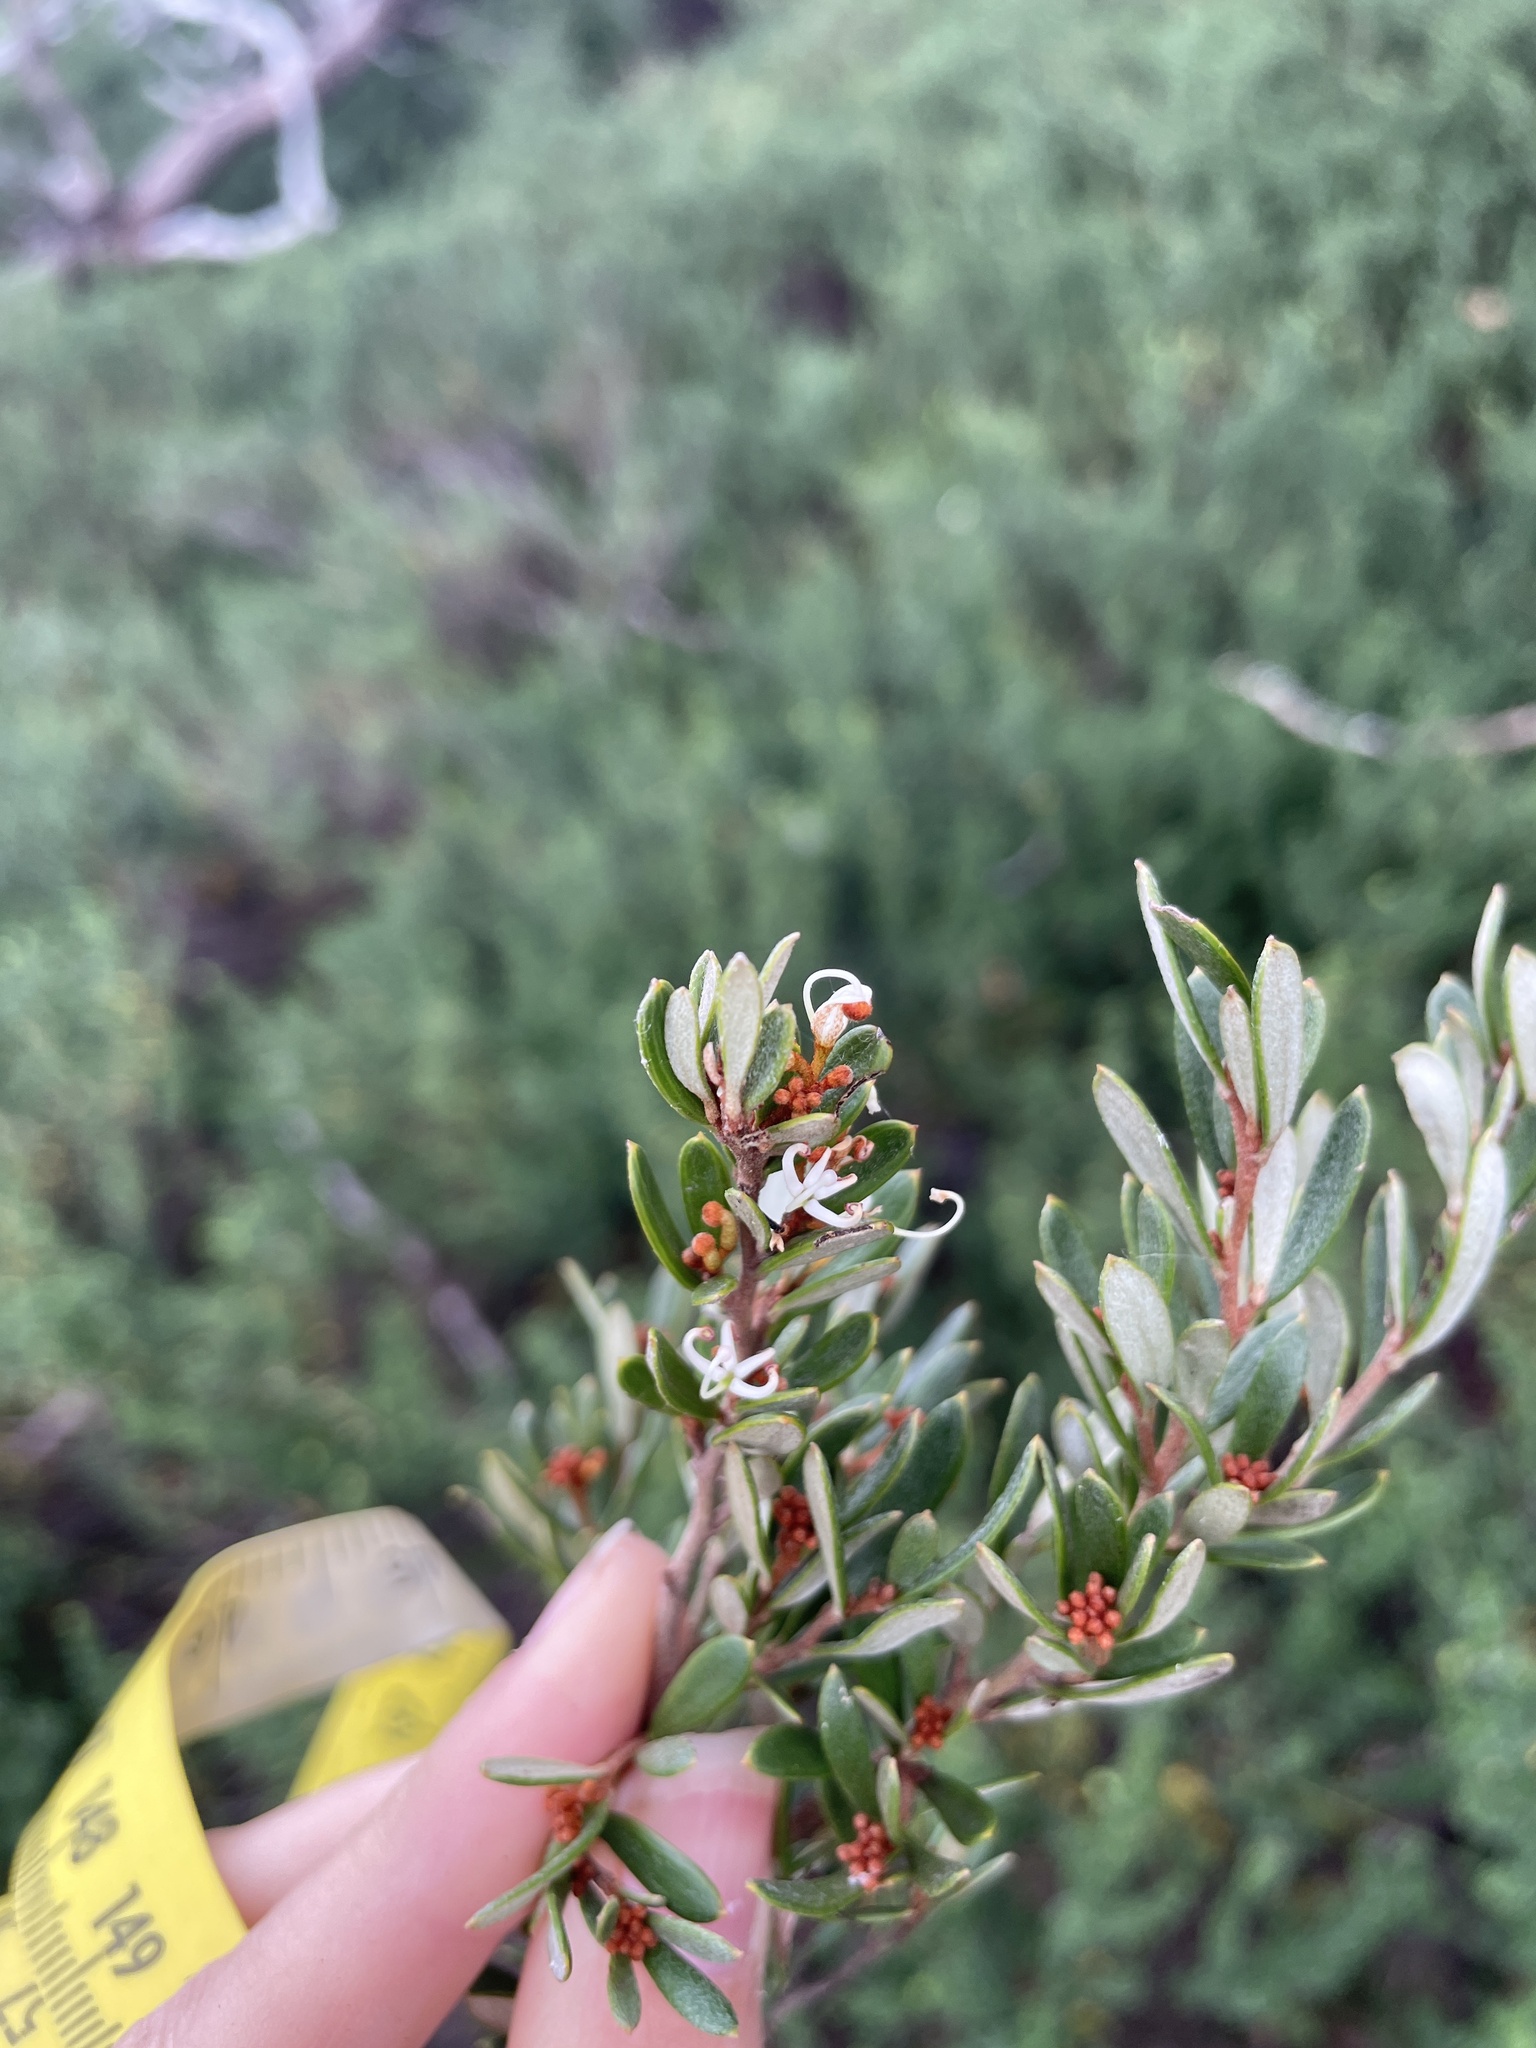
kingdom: Plantae
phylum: Tracheophyta
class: Magnoliopsida
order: Proteales
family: Proteaceae
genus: Grevillea
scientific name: Grevillea australis
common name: Alpine grevillea
